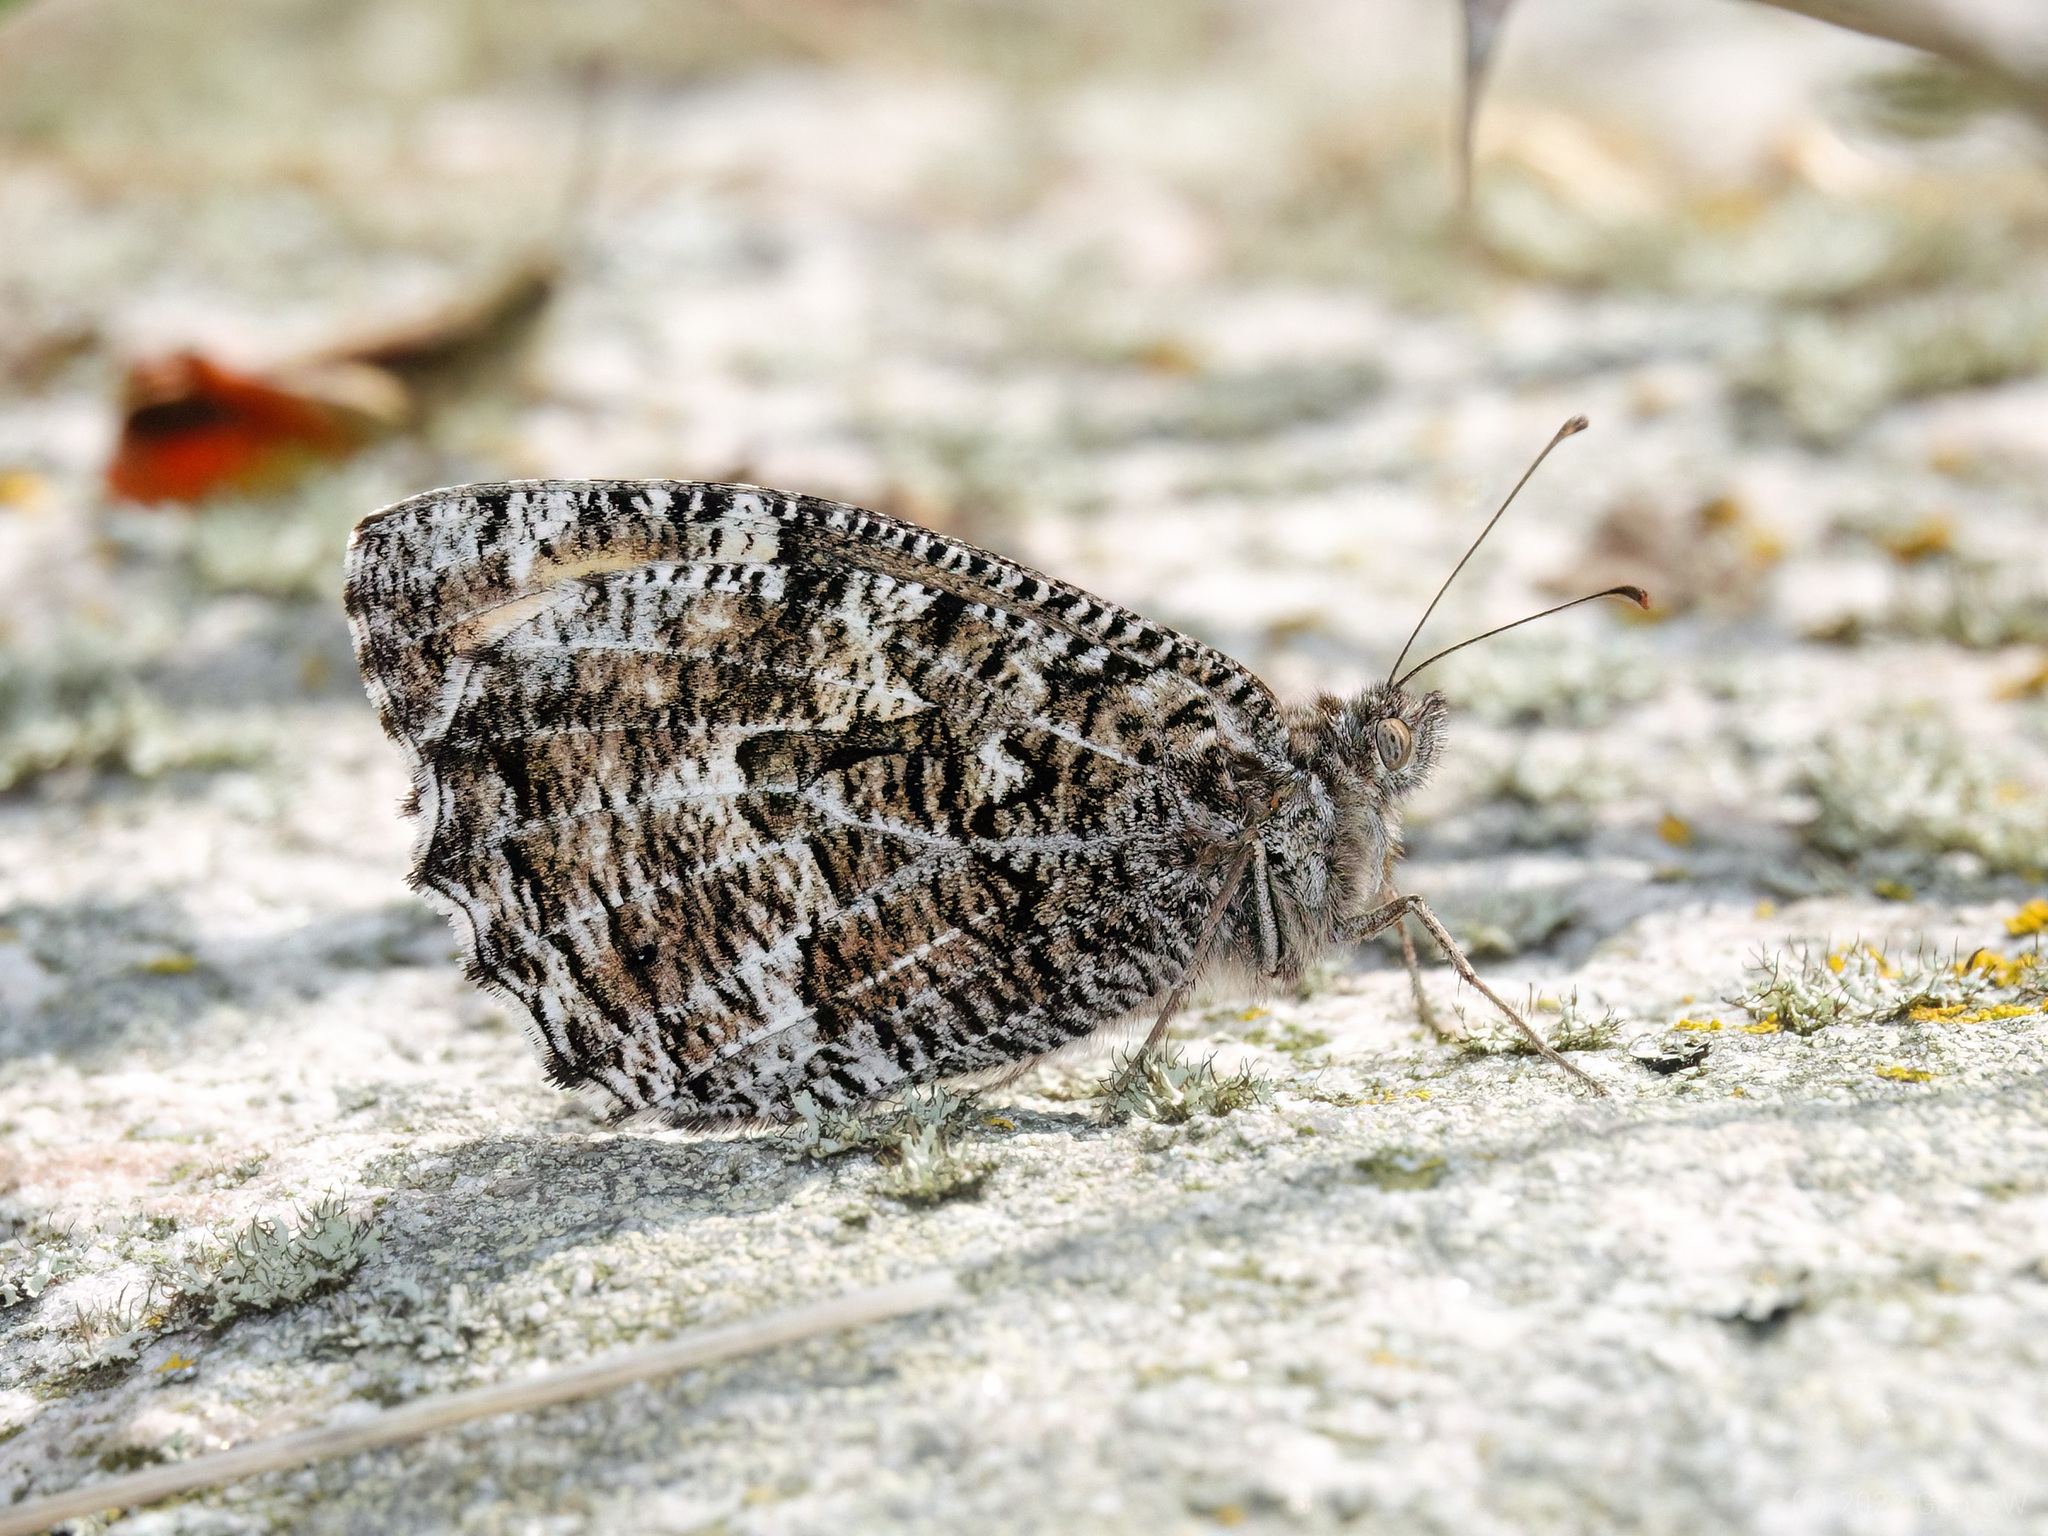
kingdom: Animalia
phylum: Arthropoda
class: Insecta
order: Lepidoptera
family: Nymphalidae
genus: Hipparchia
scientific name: Hipparchia semele
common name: Grayling
